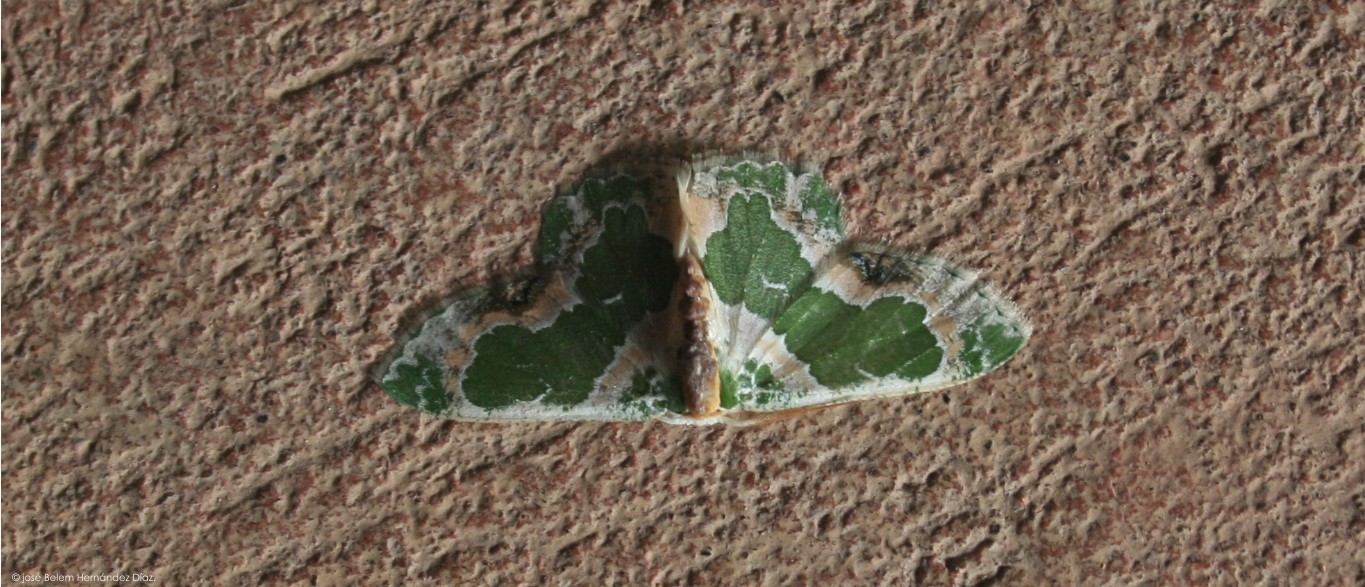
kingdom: Animalia
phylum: Arthropoda
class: Insecta
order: Lepidoptera
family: Geometridae
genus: Lophochorista
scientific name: Lophochorista calliope
